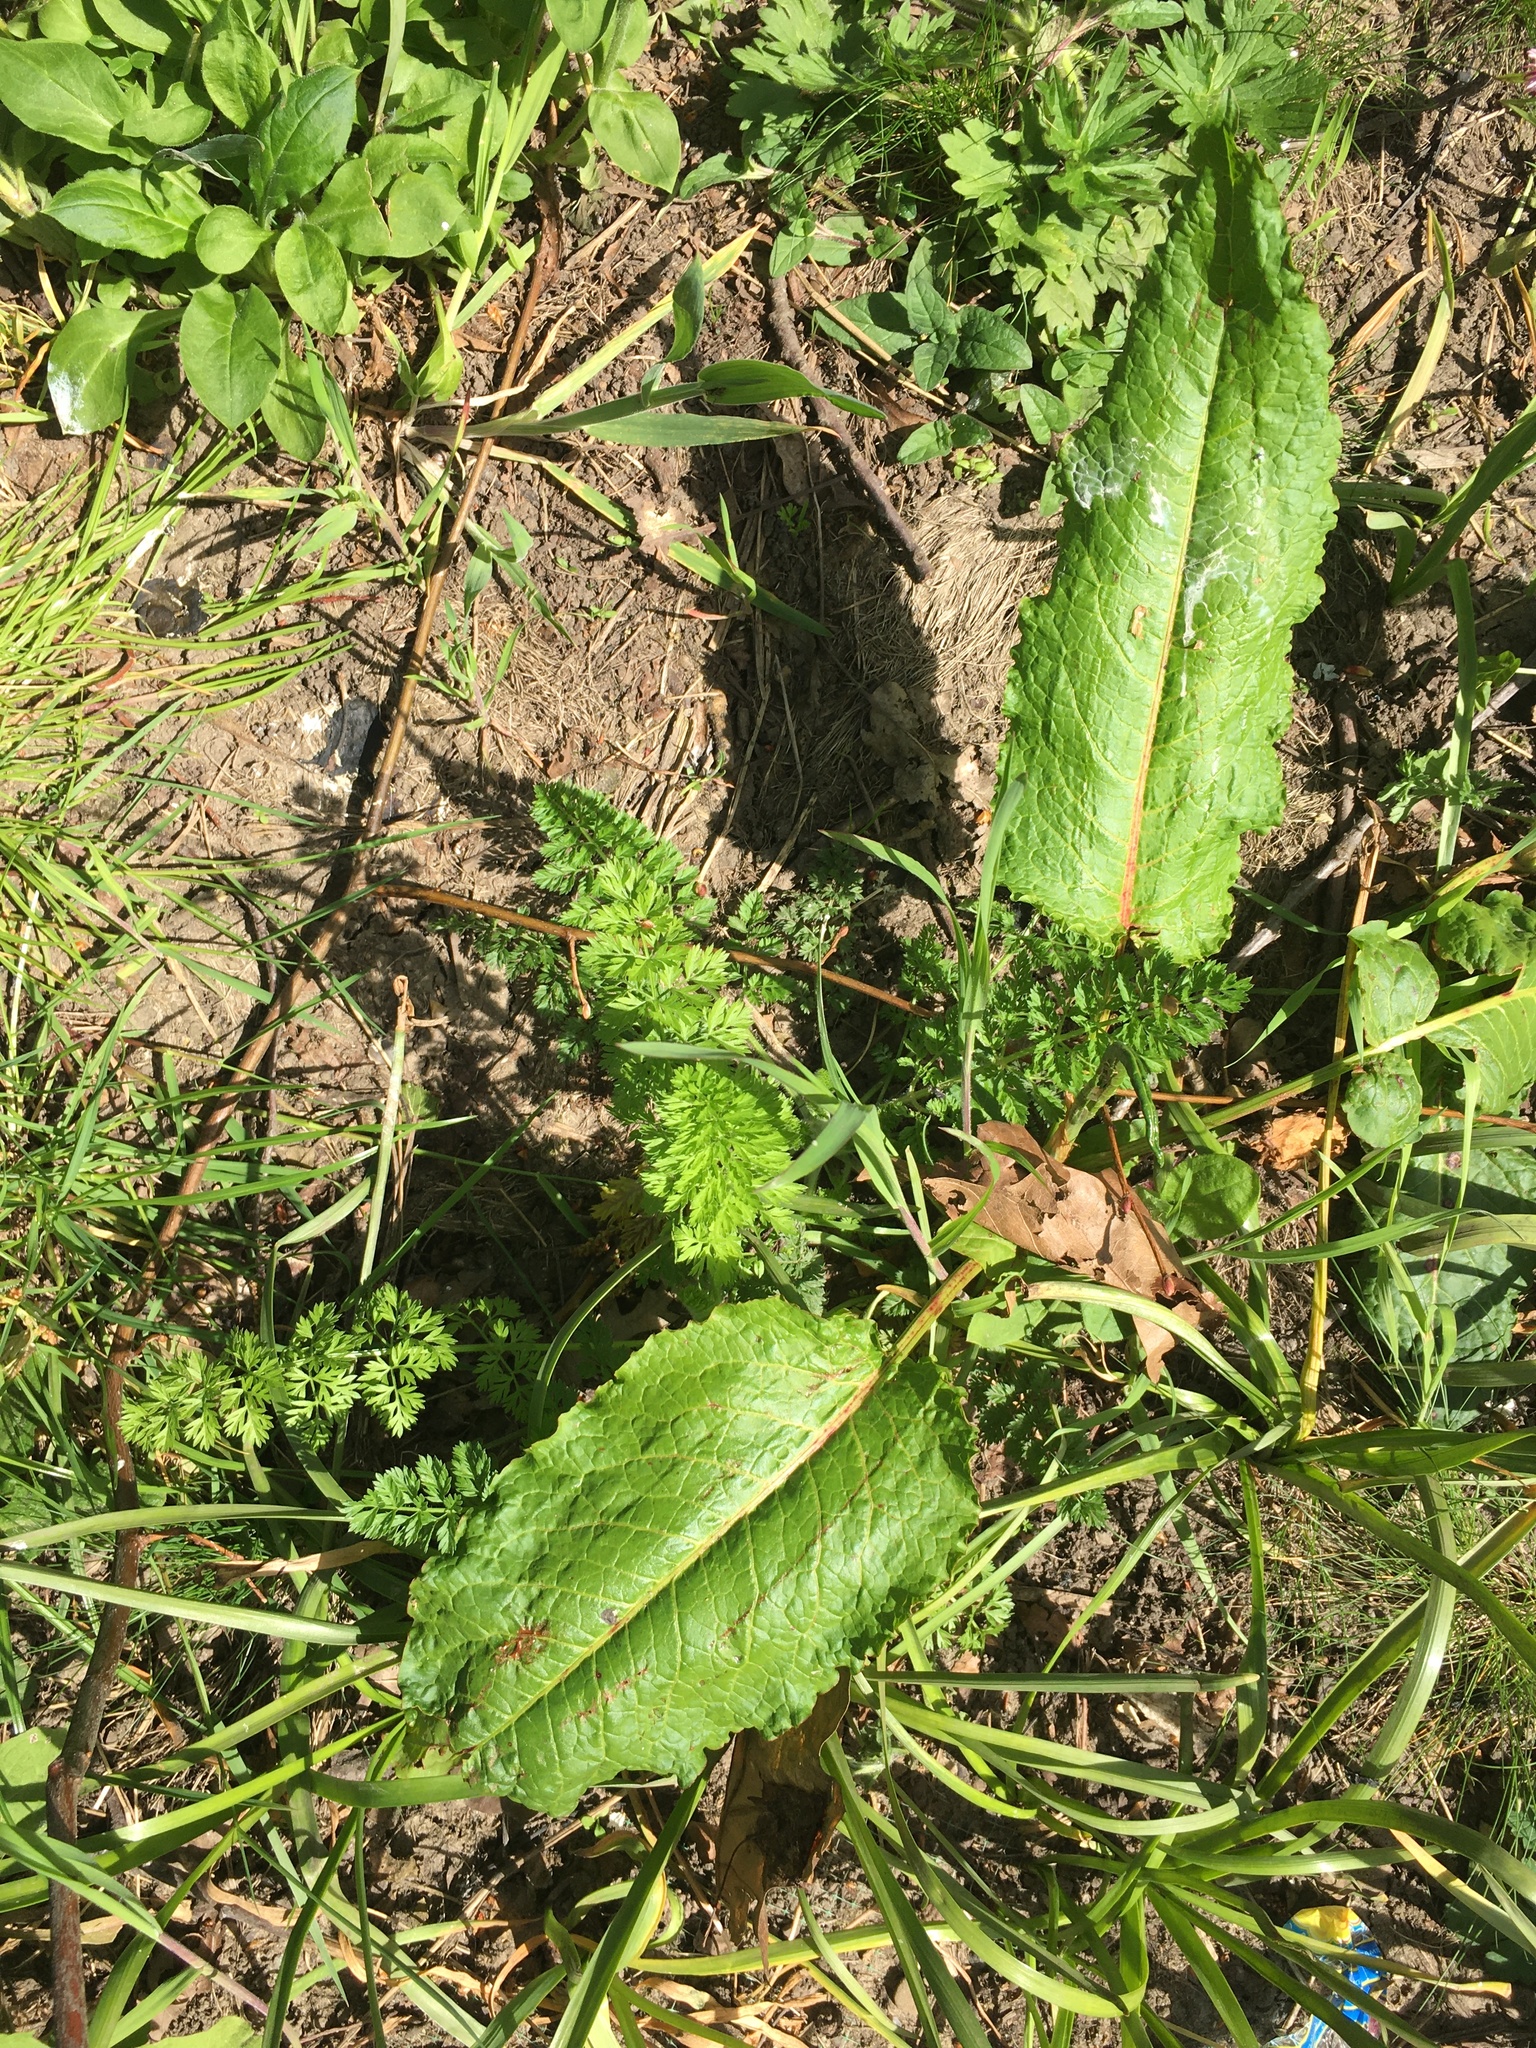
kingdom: Plantae
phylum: Tracheophyta
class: Magnoliopsida
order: Caryophyllales
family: Polygonaceae
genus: Rumex
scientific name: Rumex obtusifolius
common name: Bitter dock
